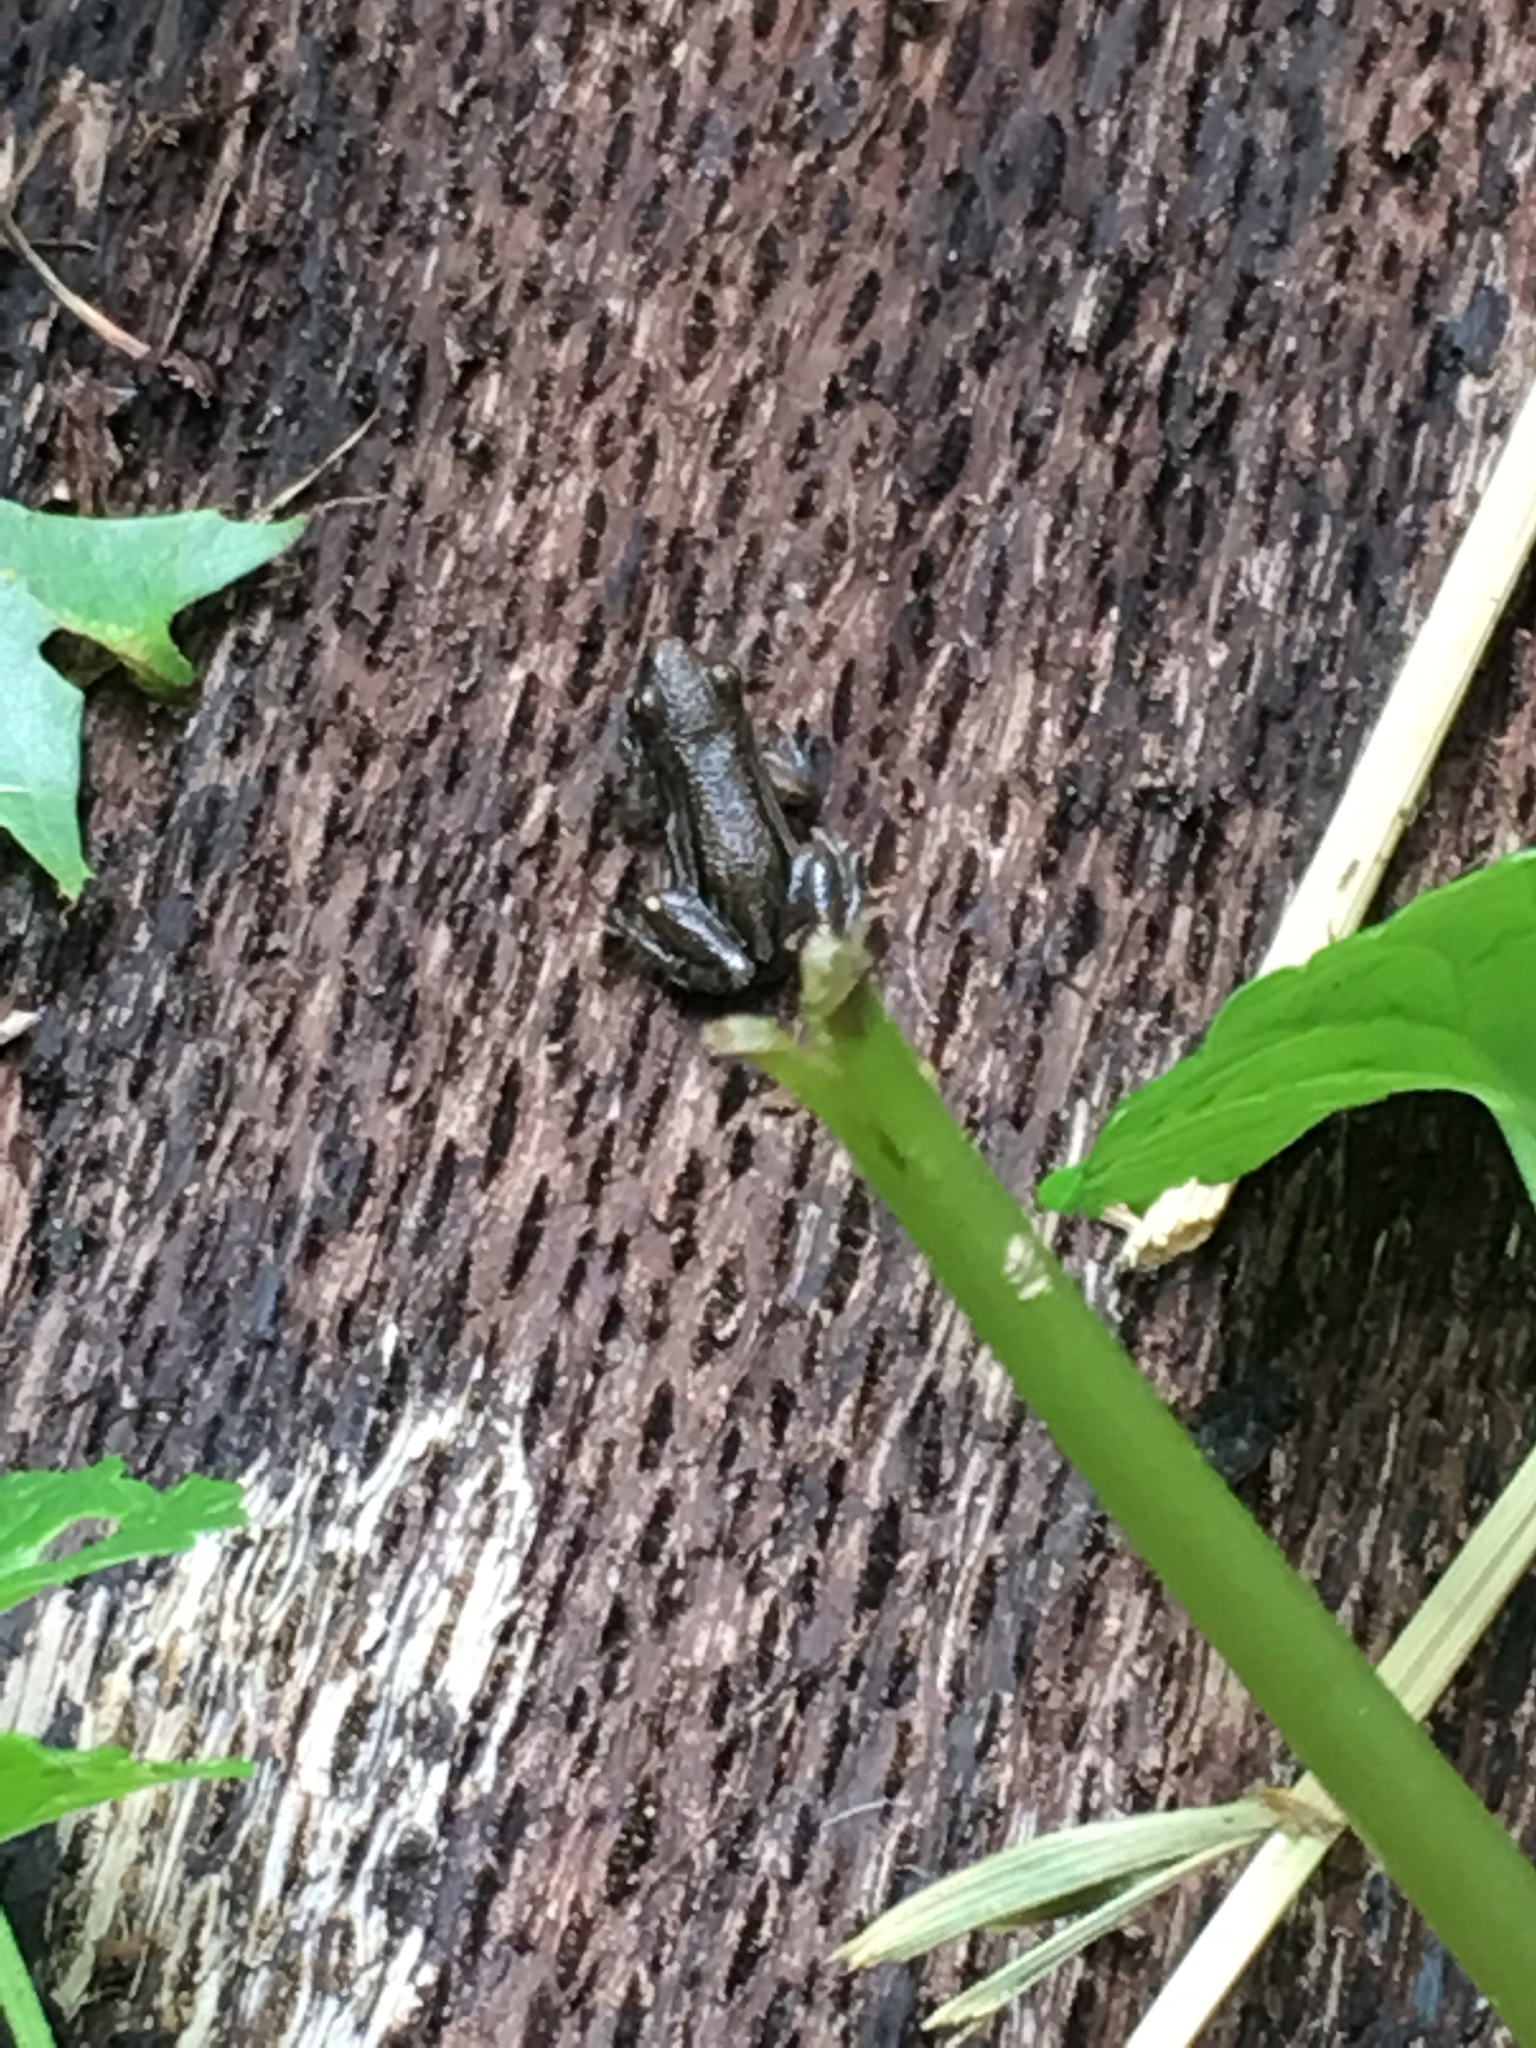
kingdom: Animalia
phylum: Chordata
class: Amphibia
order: Anura
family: Hylidae
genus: Pseudacris
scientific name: Pseudacris maculata
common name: Boreal chorus frog
